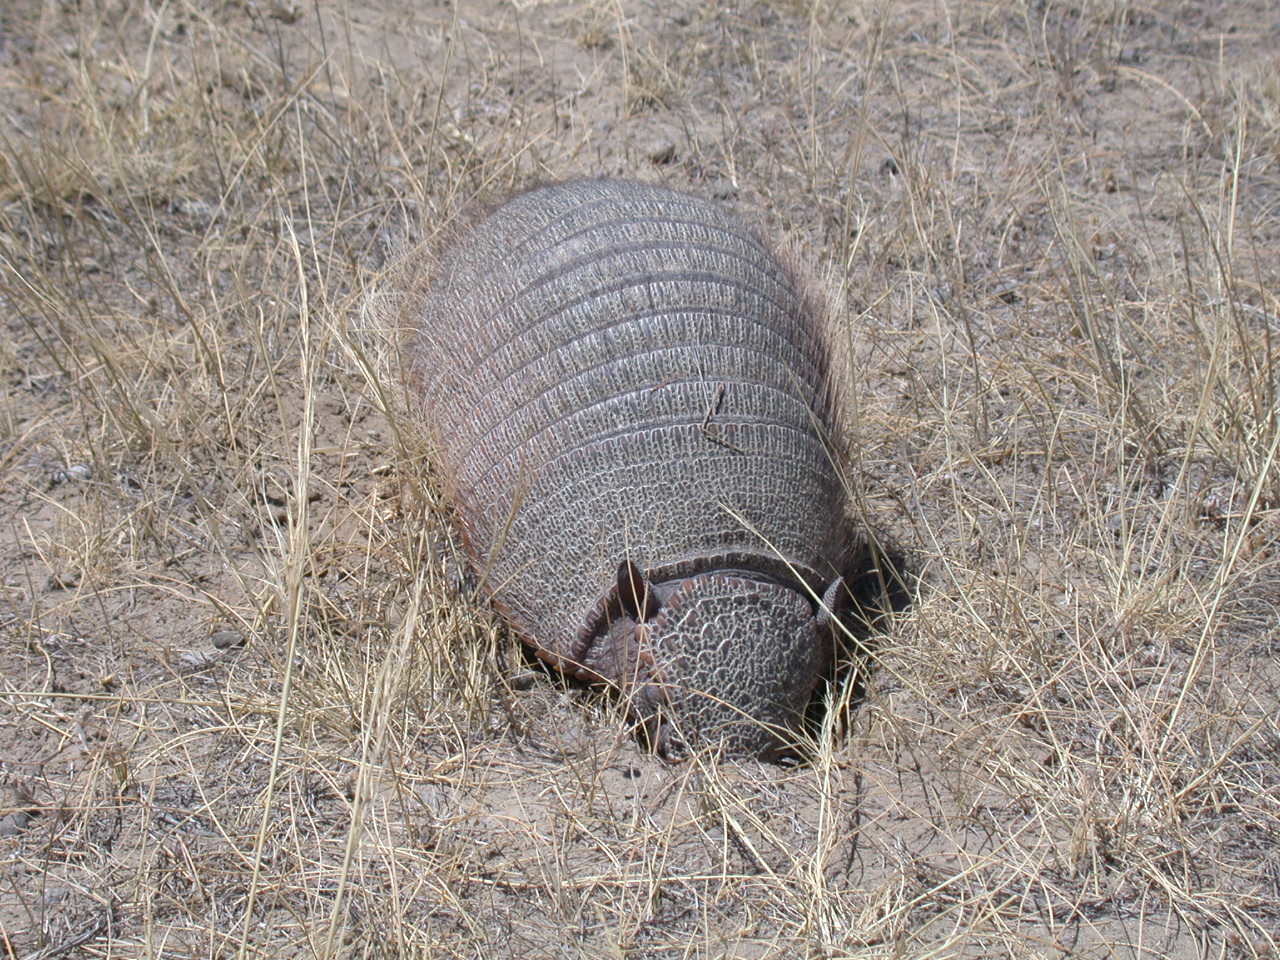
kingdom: Animalia
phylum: Chordata
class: Mammalia
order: Cingulata
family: Dasypodidae
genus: Chaetophractus
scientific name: Chaetophractus villosus
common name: Big hairy armadillo
